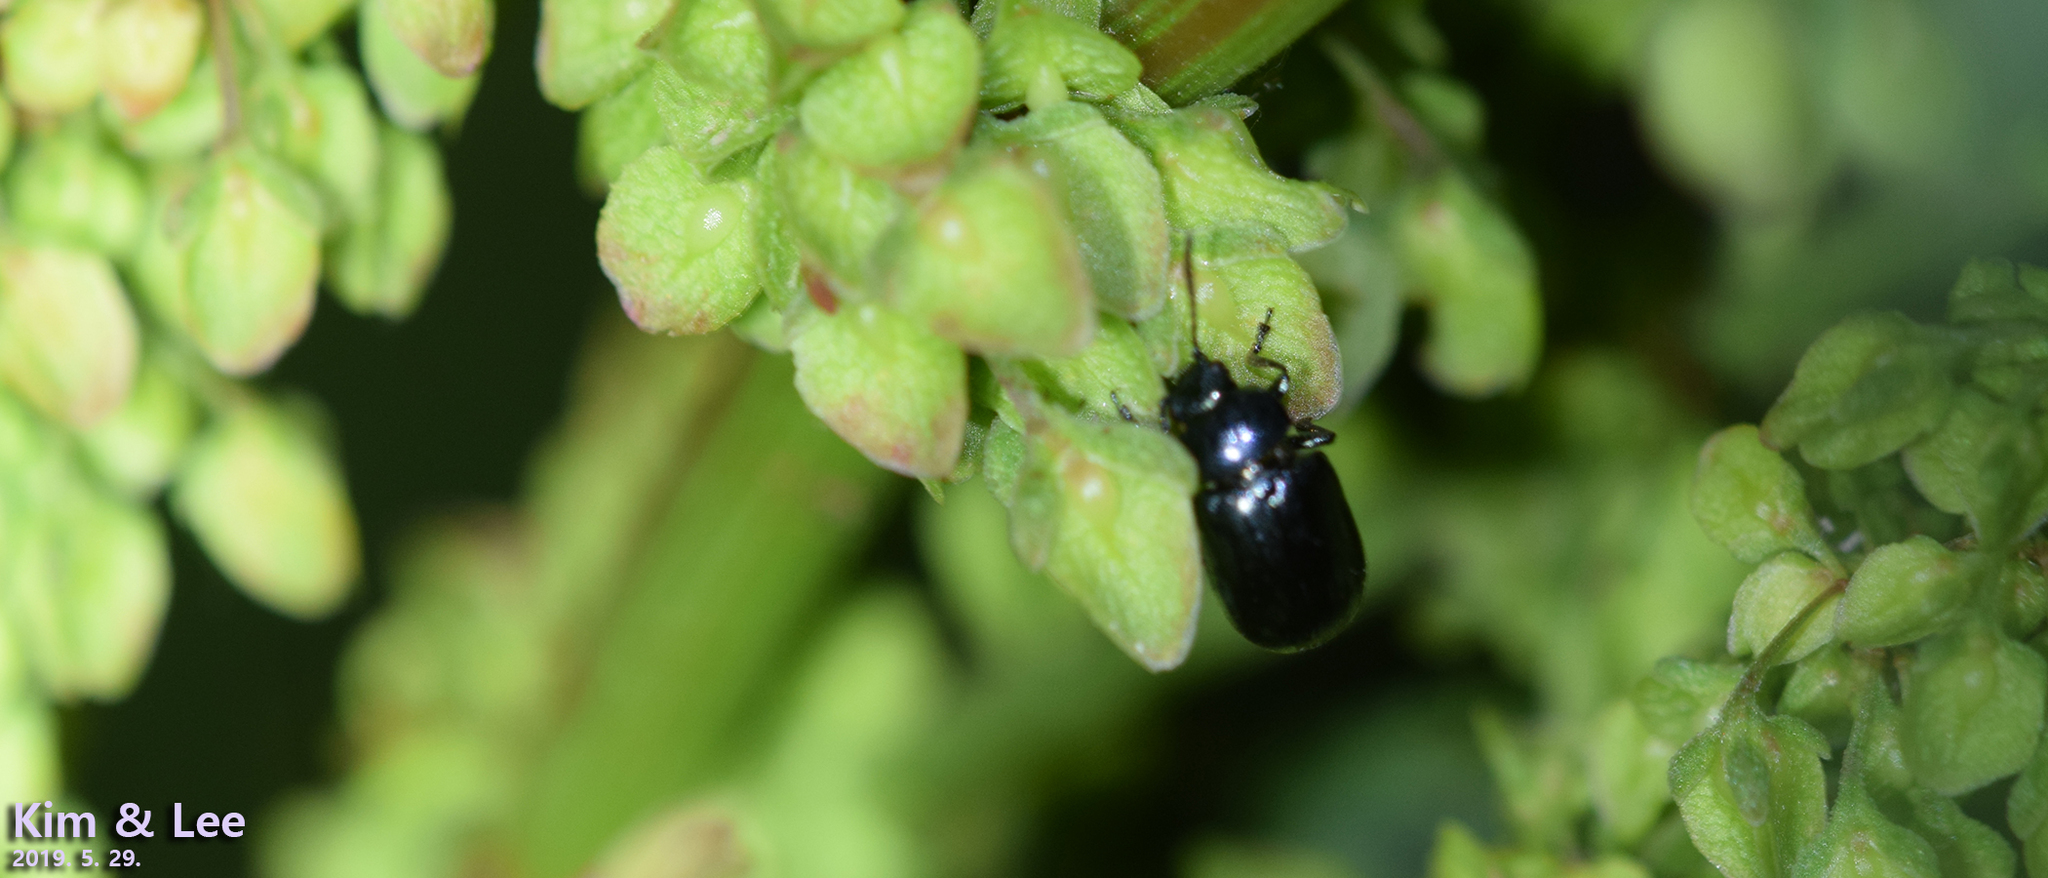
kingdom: Animalia
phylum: Arthropoda
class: Insecta
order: Coleoptera
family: Chrysomelidae
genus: Gastrophysa
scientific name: Gastrophysa atrocyanea
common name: Leaf beetle
